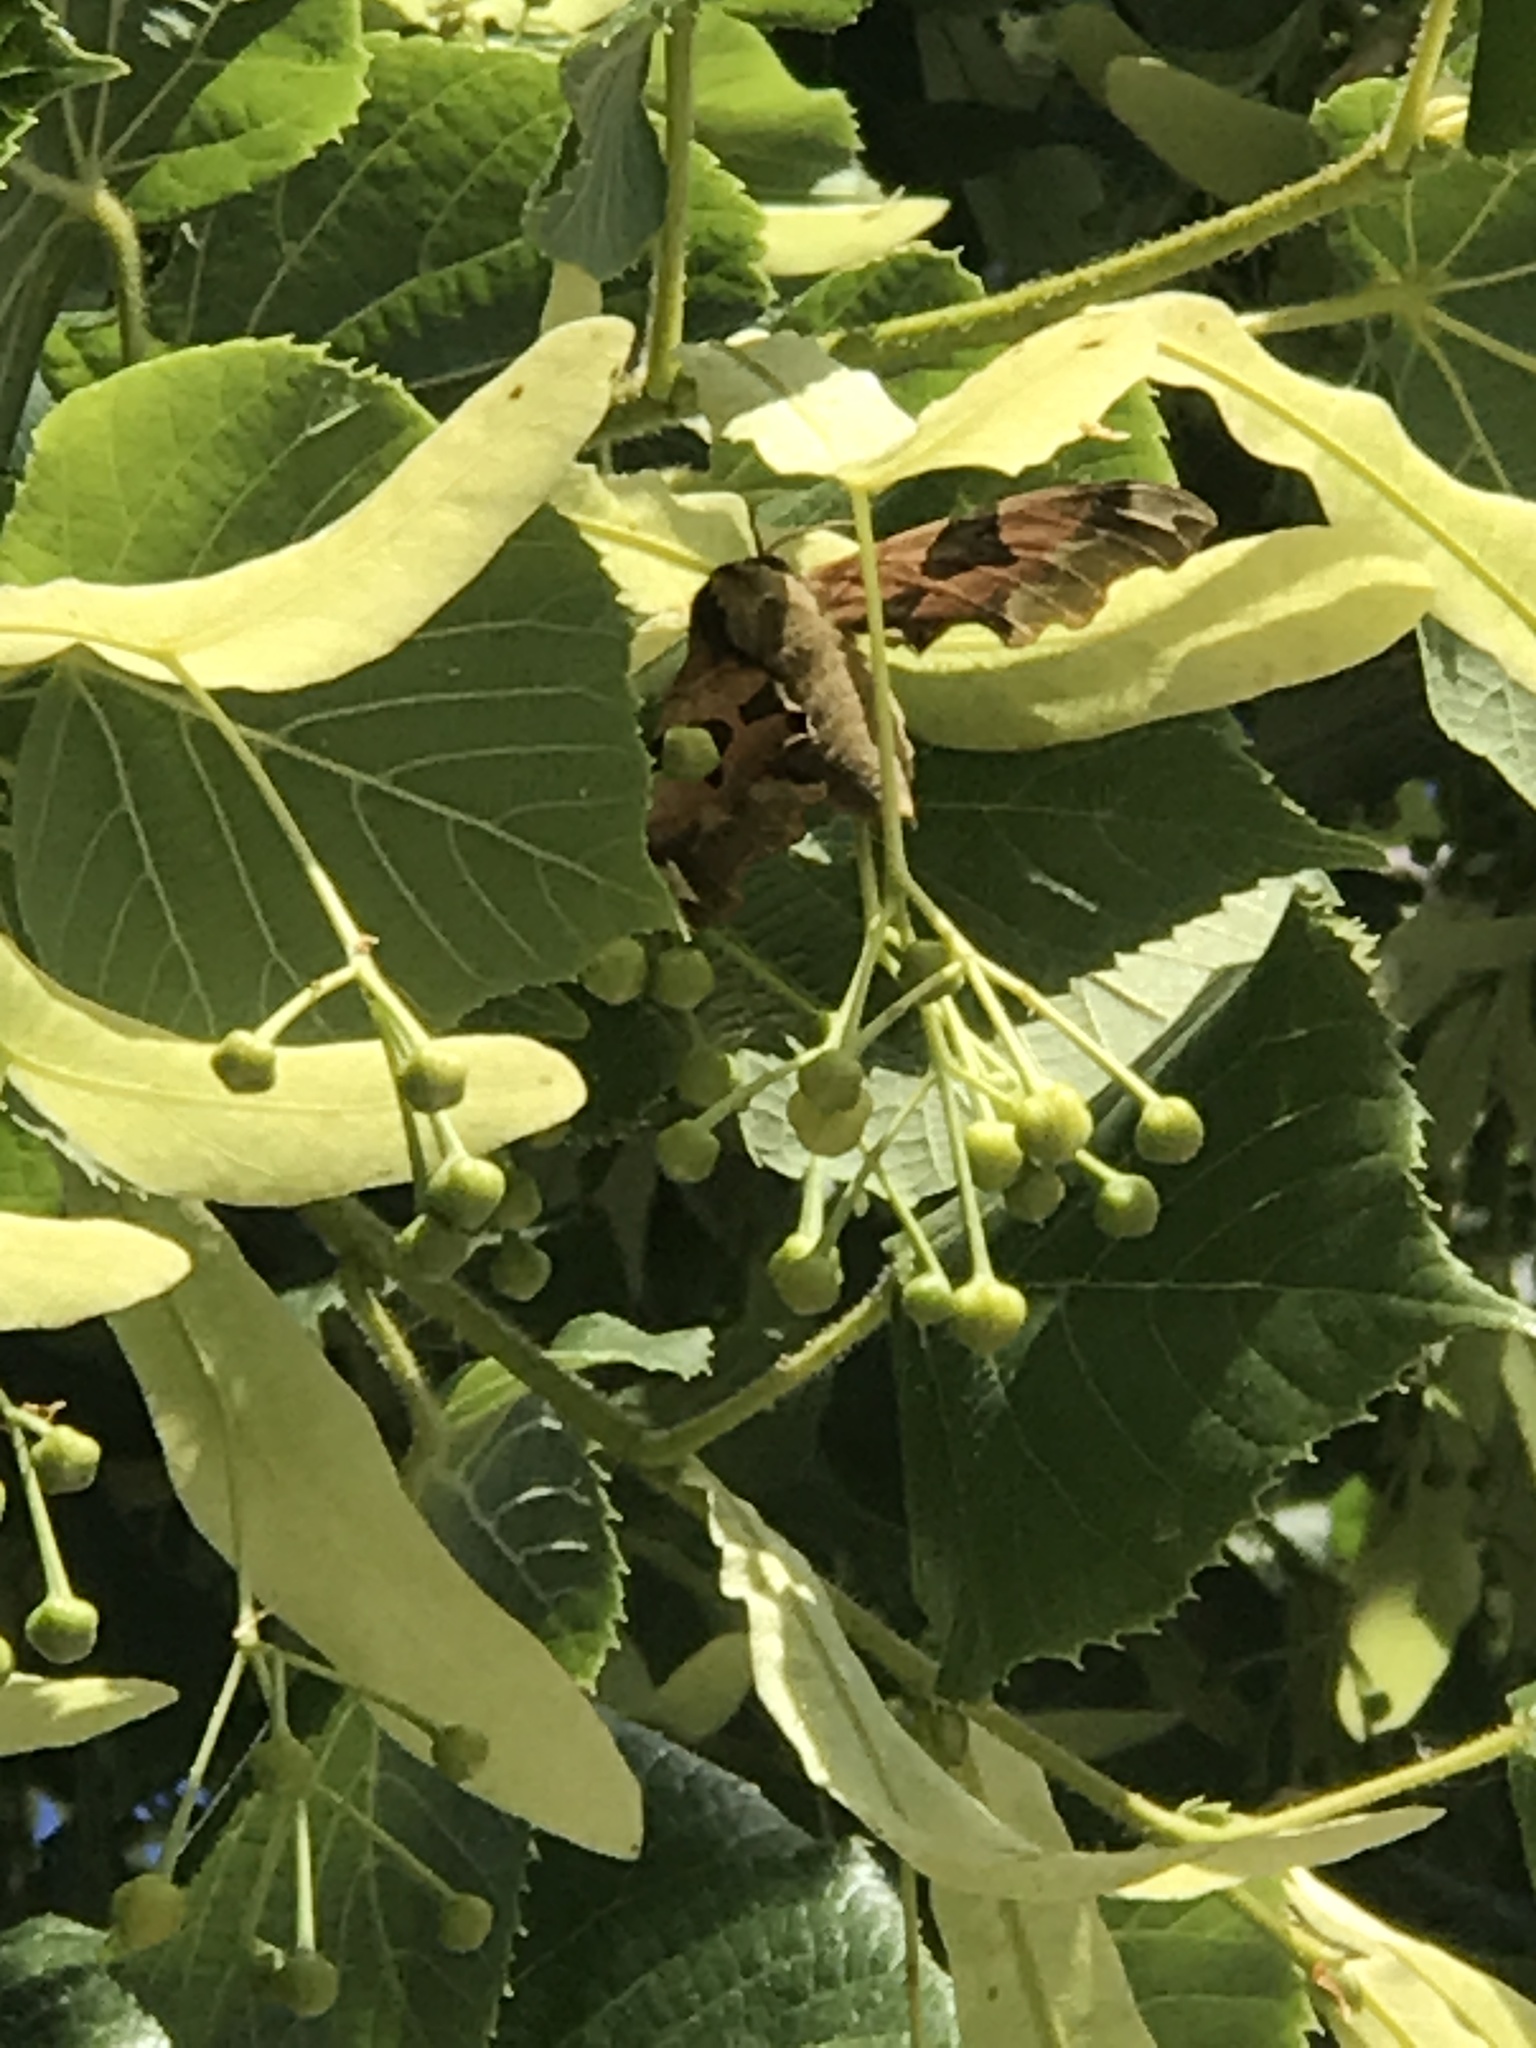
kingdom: Animalia
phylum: Arthropoda
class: Insecta
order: Lepidoptera
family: Sphingidae
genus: Mimas
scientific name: Mimas tiliae
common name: Lime hawk-moth
